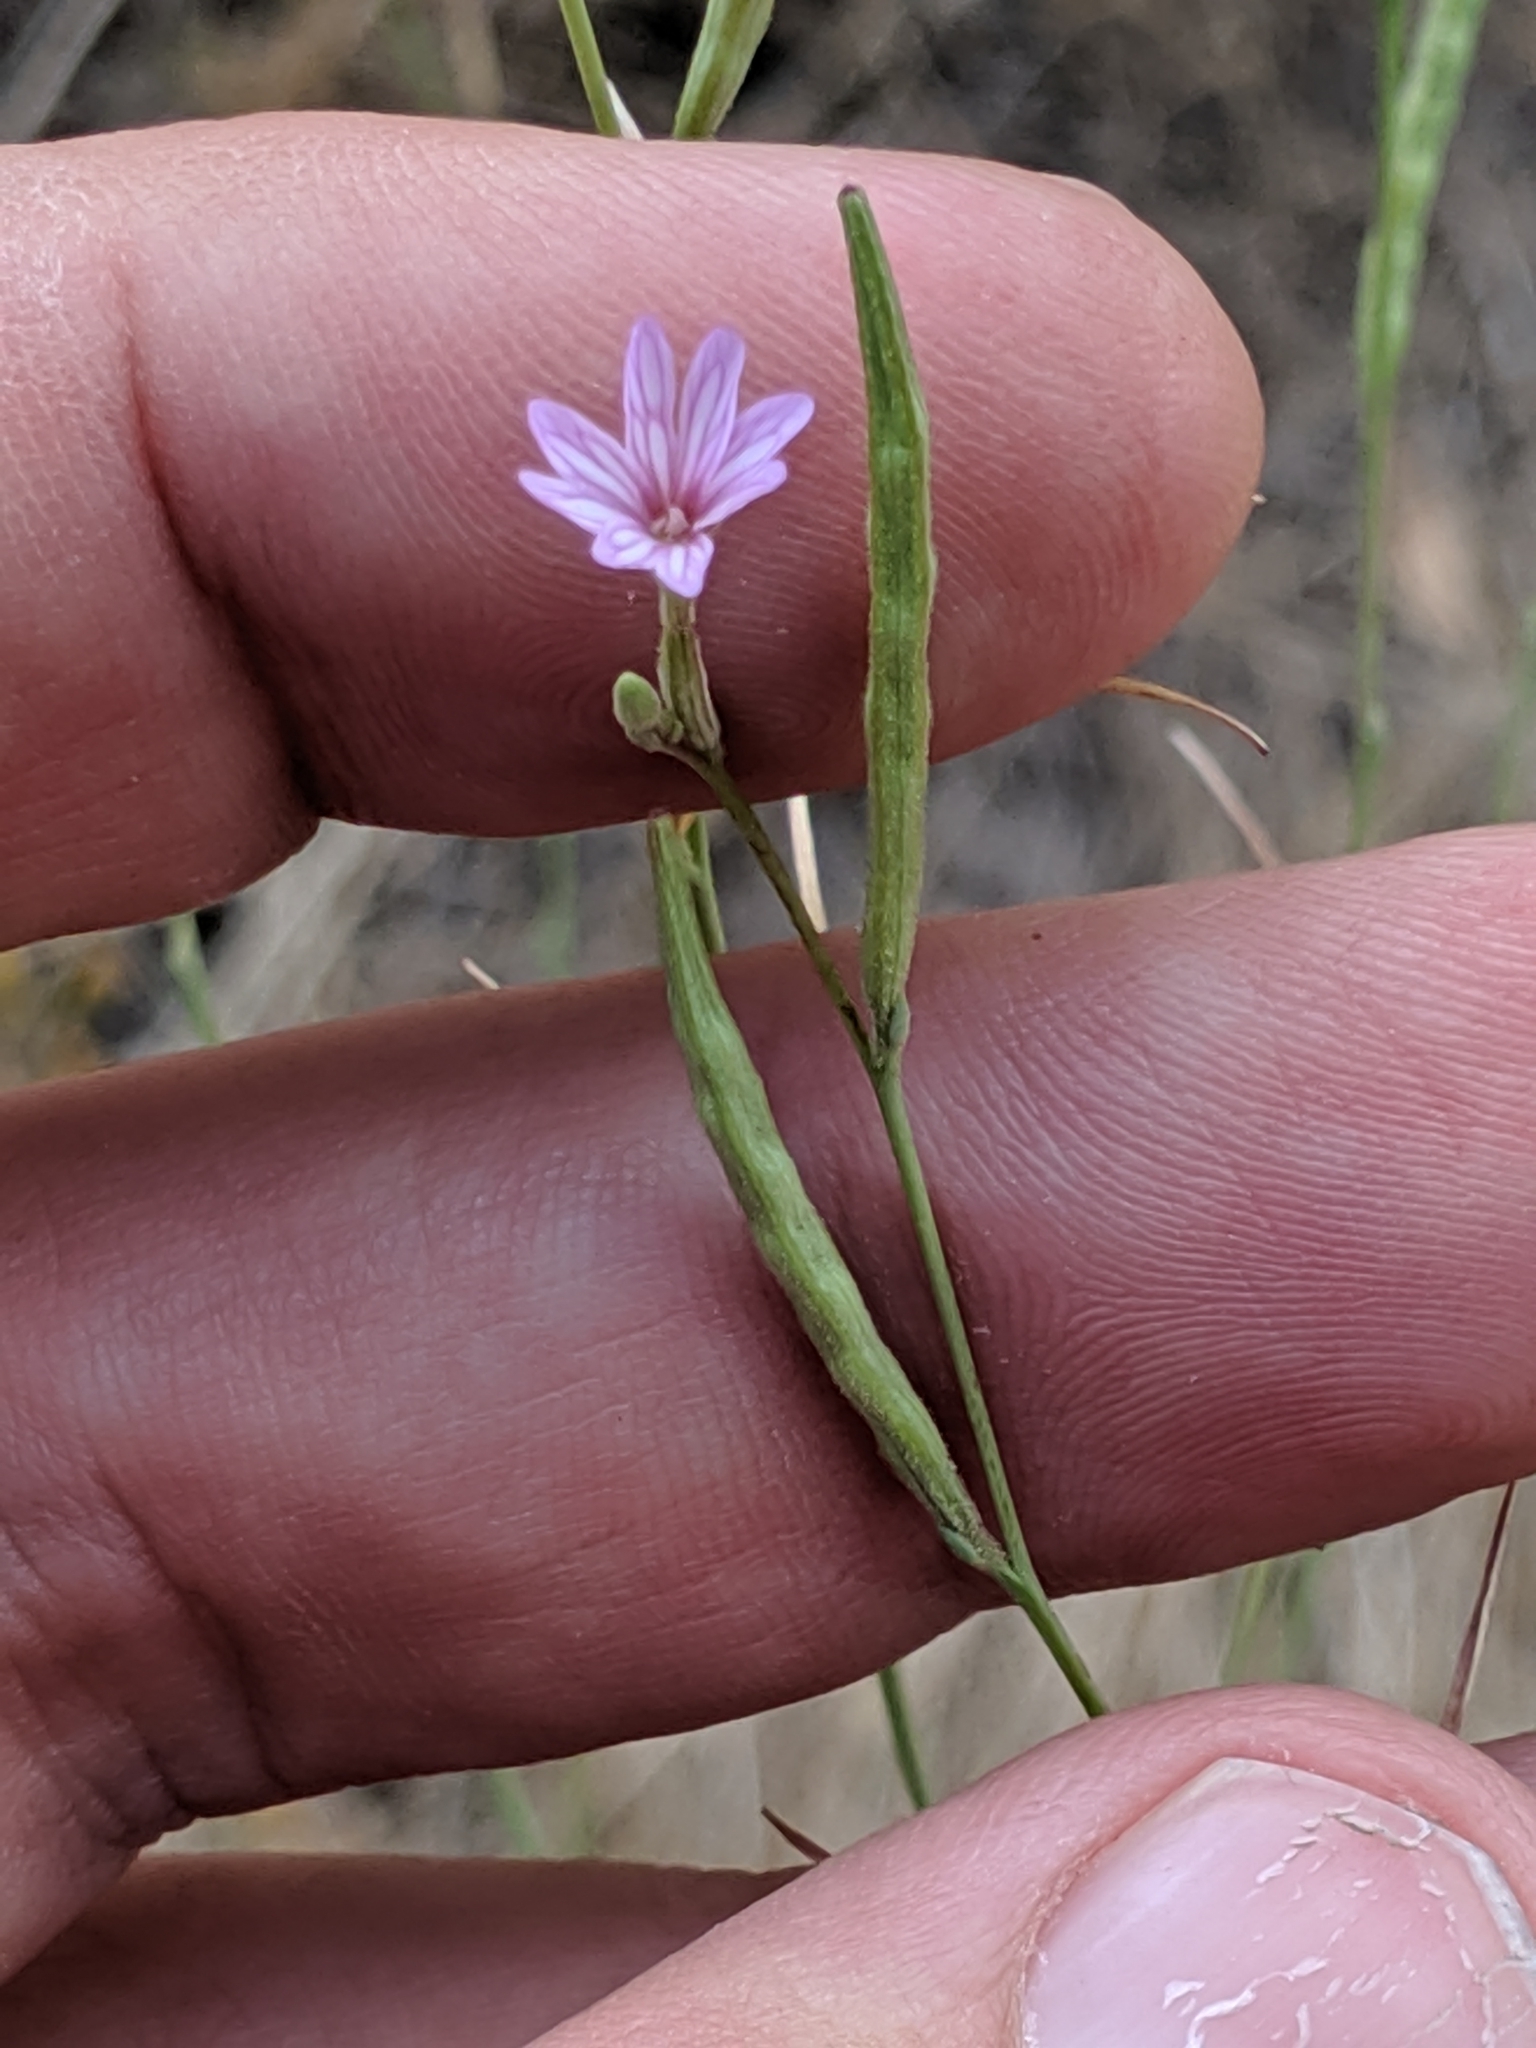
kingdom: Plantae
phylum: Tracheophyta
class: Magnoliopsida
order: Myrtales
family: Onagraceae
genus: Epilobium
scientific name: Epilobium brachycarpum
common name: Annual willowherb
